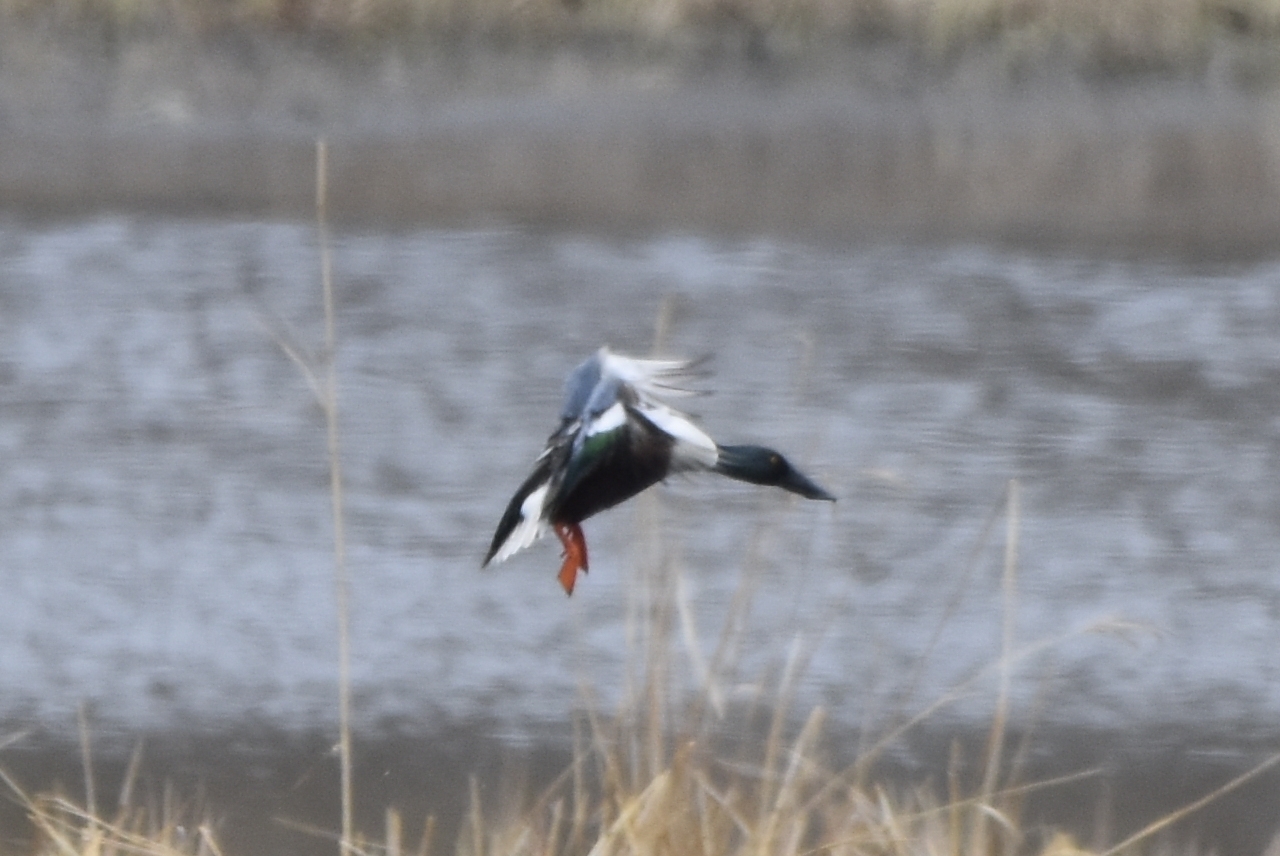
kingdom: Animalia
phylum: Chordata
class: Aves
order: Anseriformes
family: Anatidae
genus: Spatula
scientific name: Spatula clypeata
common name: Northern shoveler
